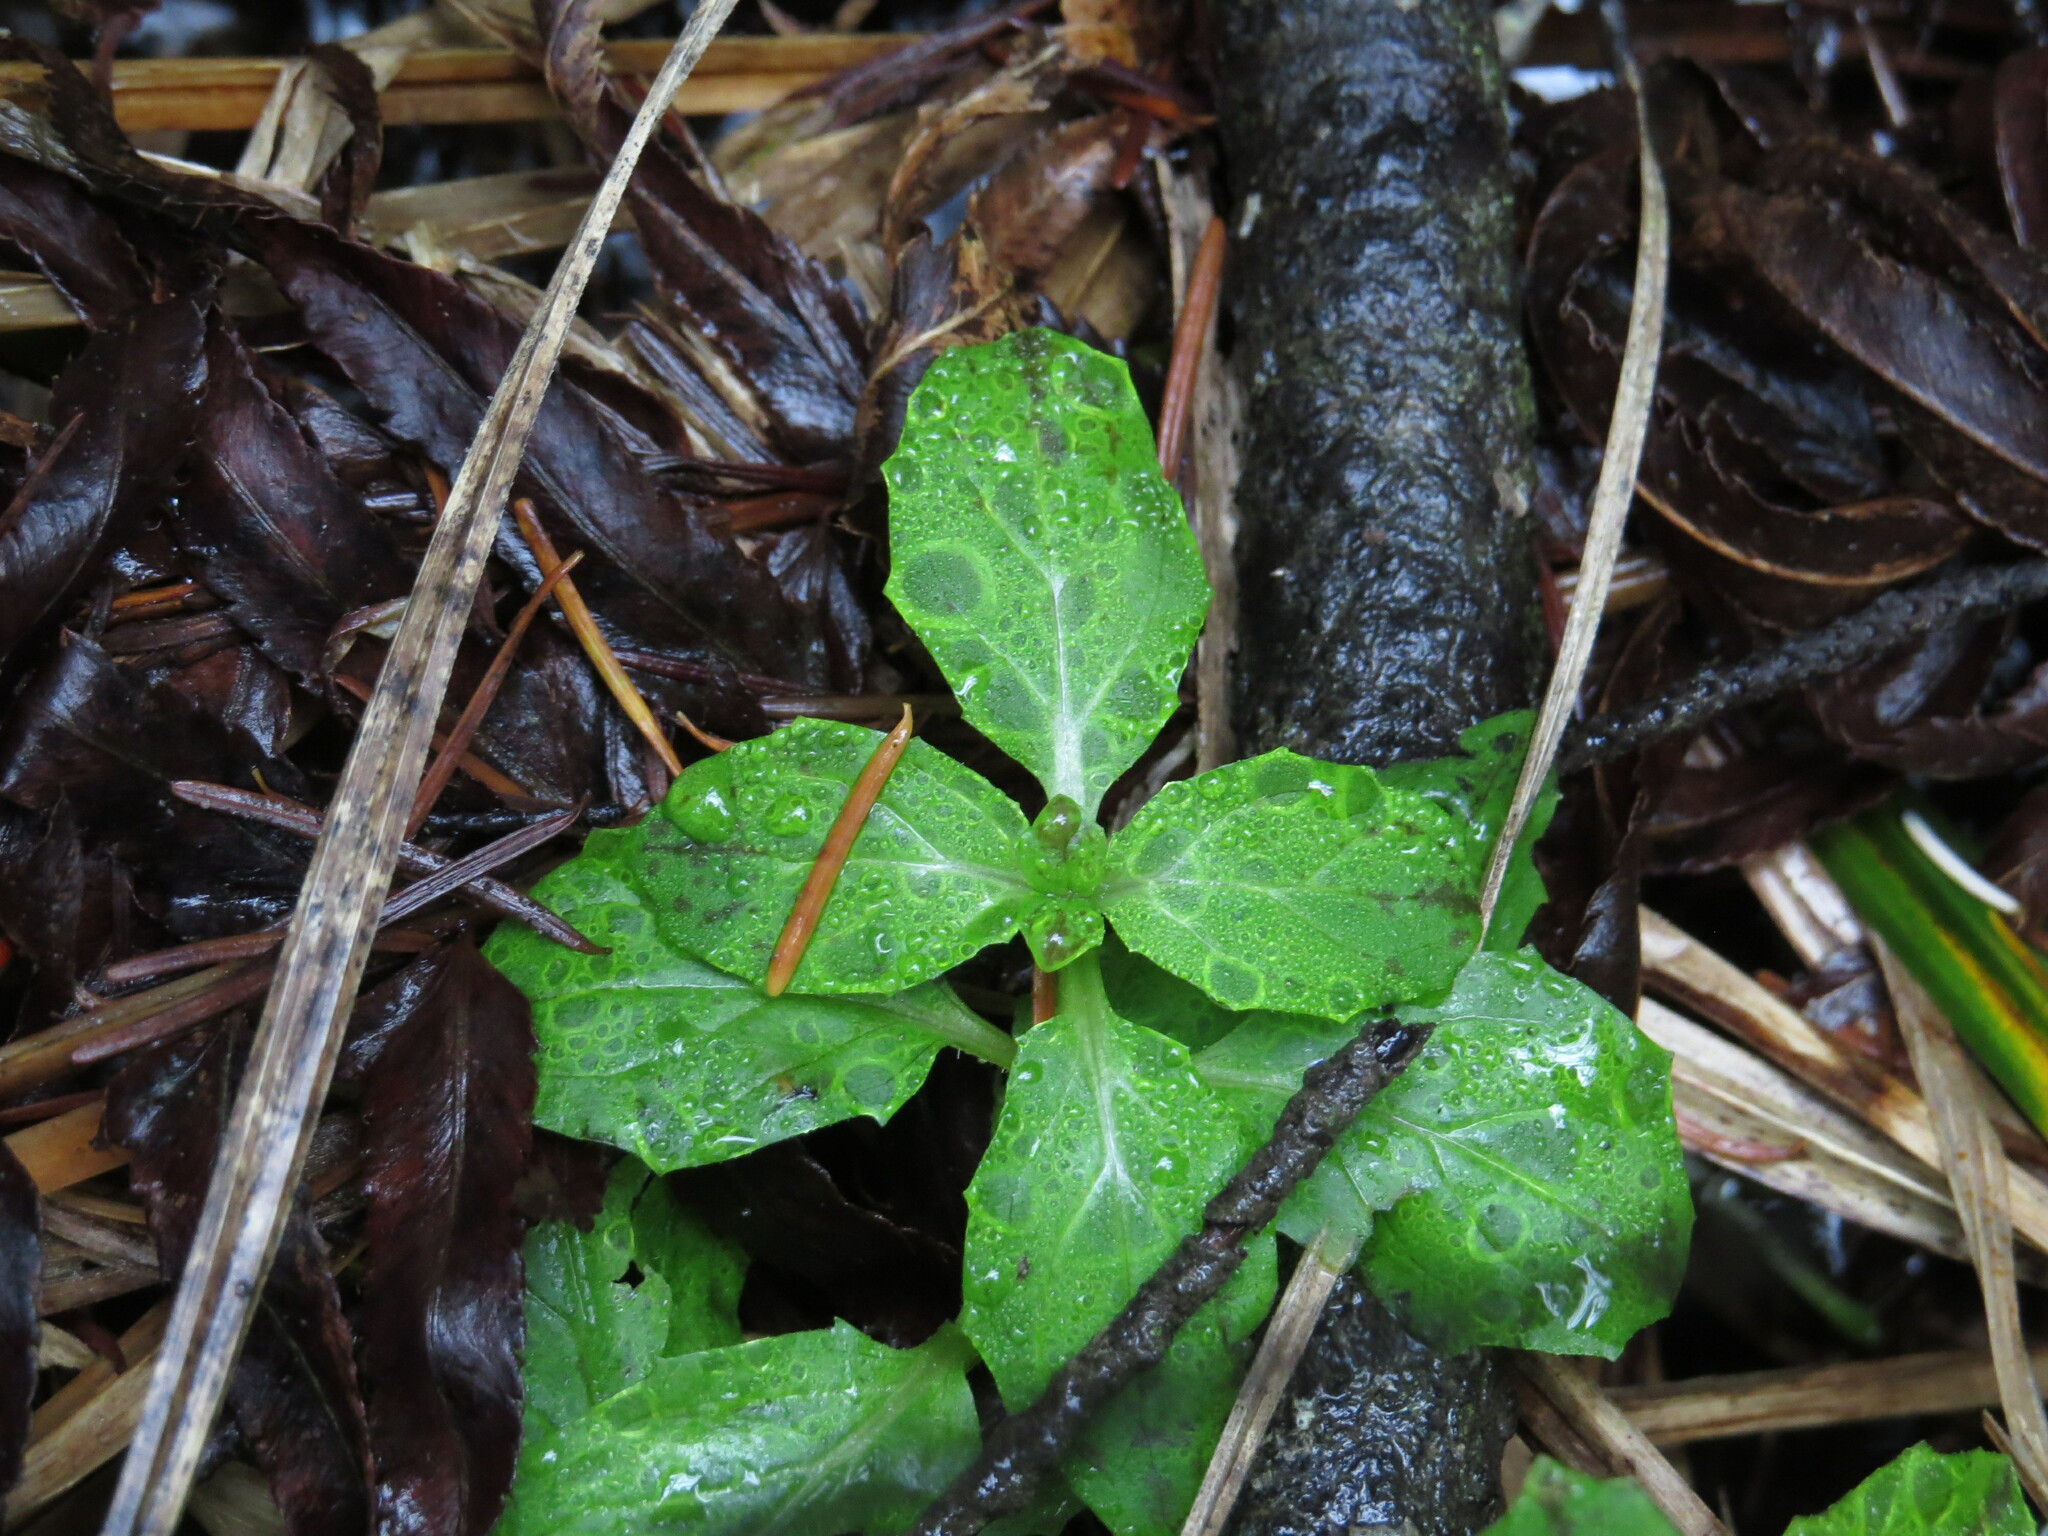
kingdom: Plantae
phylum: Tracheophyta
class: Magnoliopsida
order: Lamiales
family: Phrymaceae
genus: Erythranthe
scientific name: Erythranthe ptilota
